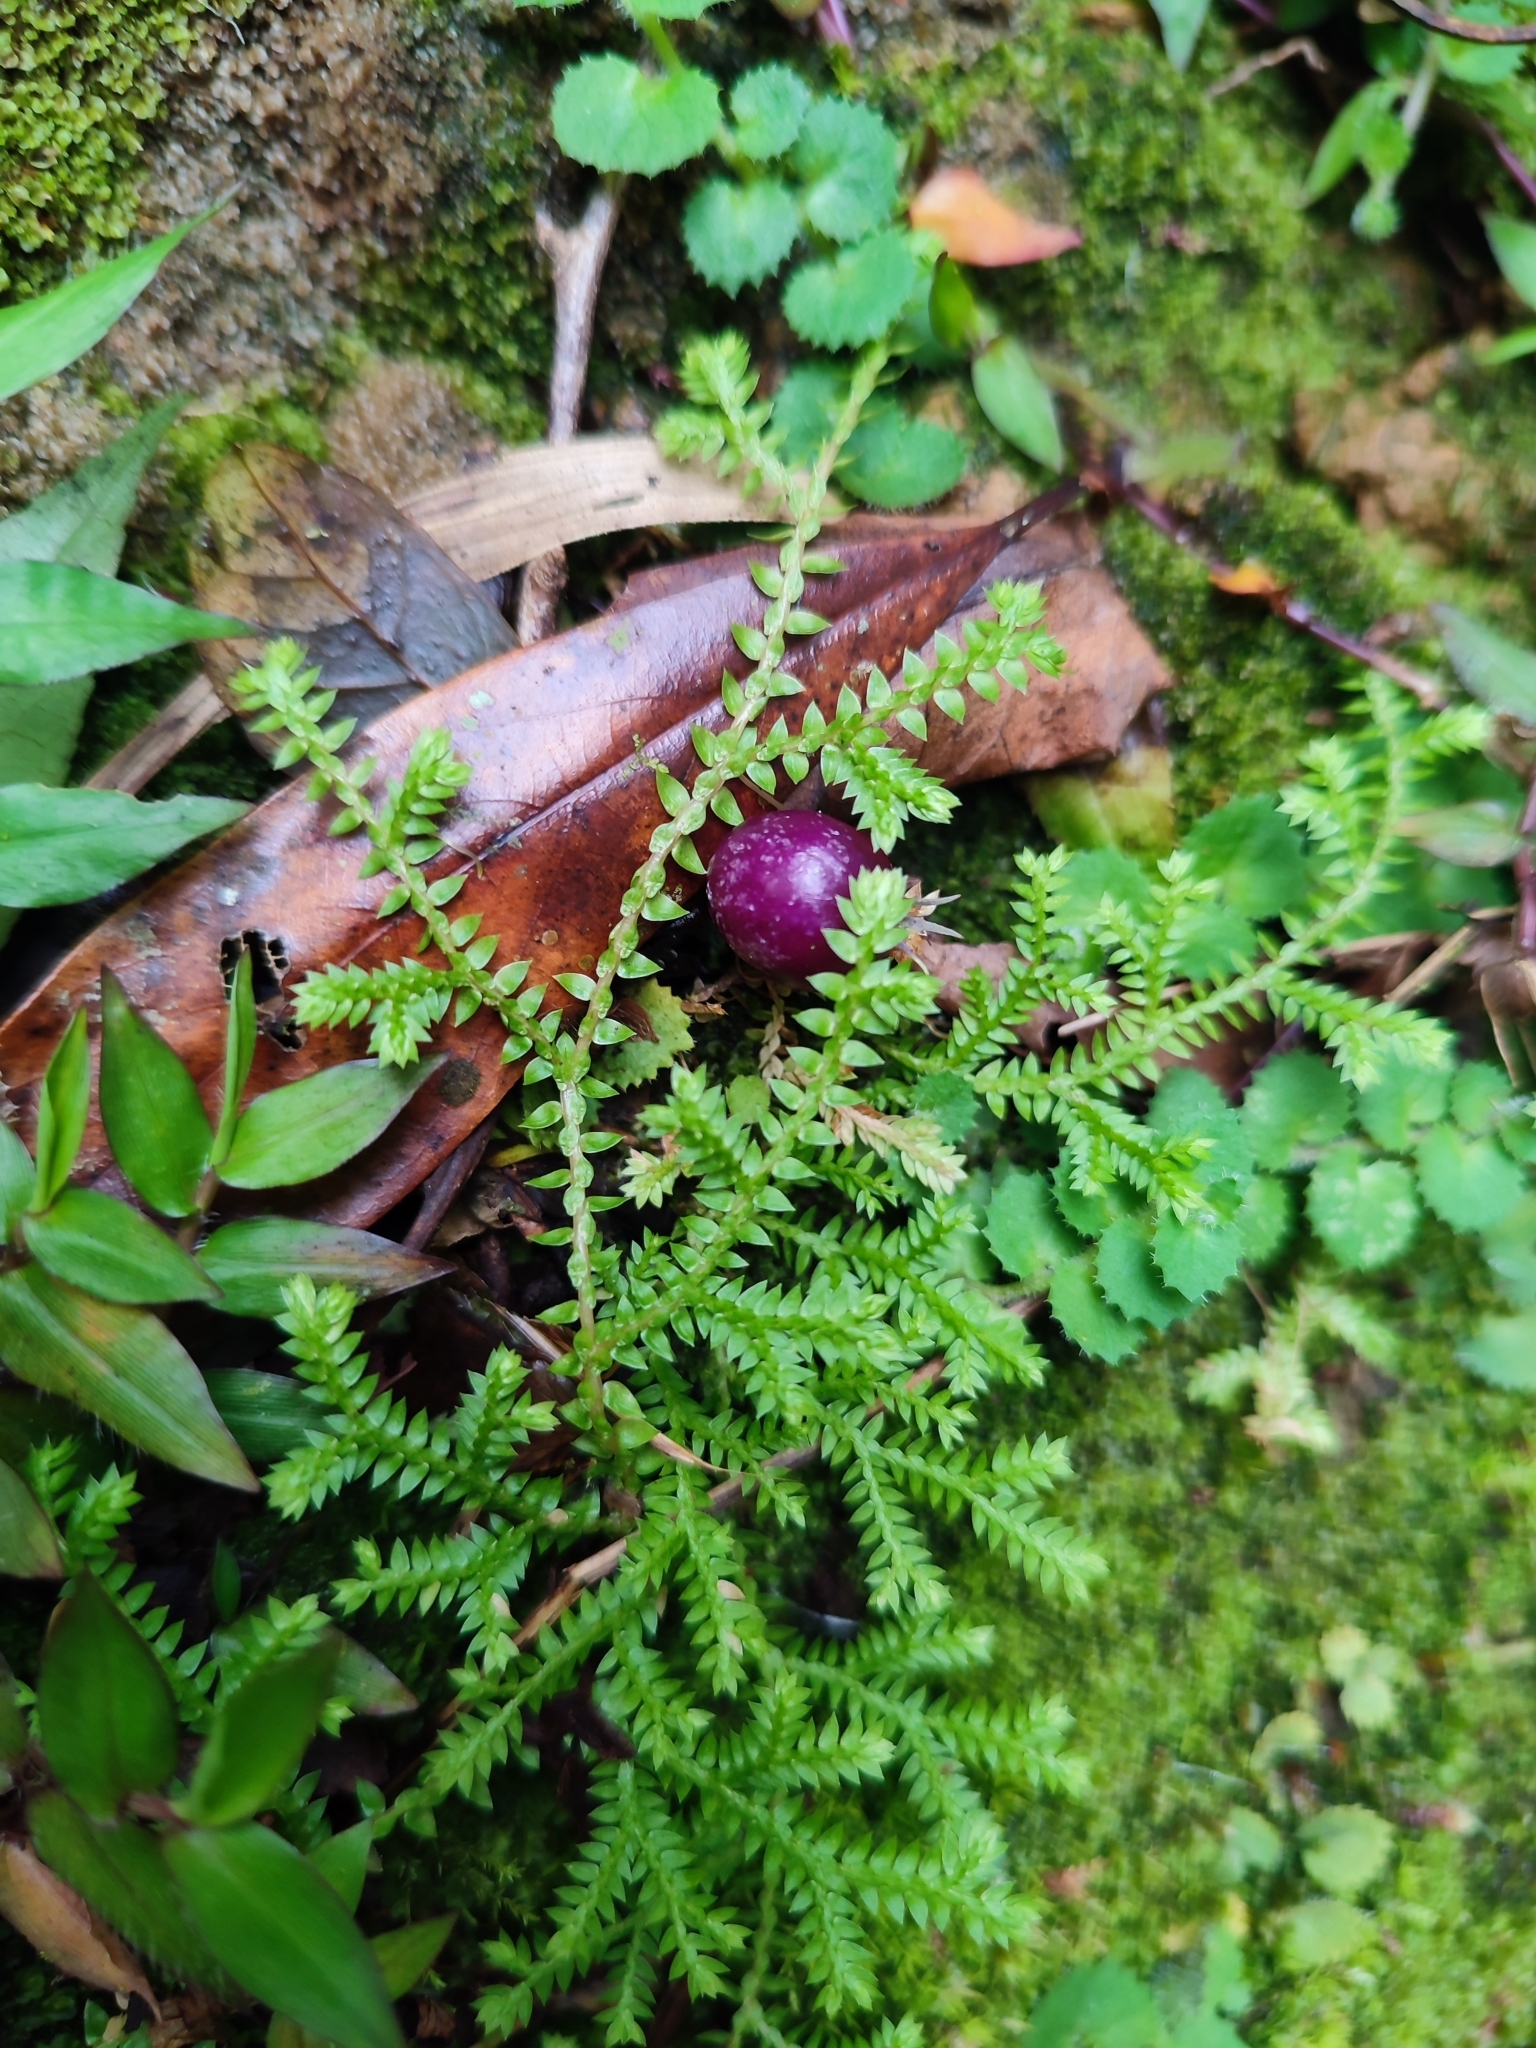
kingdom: Plantae
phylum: Tracheophyta
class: Magnoliopsida
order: Asterales
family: Campanulaceae
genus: Lobelia
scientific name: Lobelia nummularia
